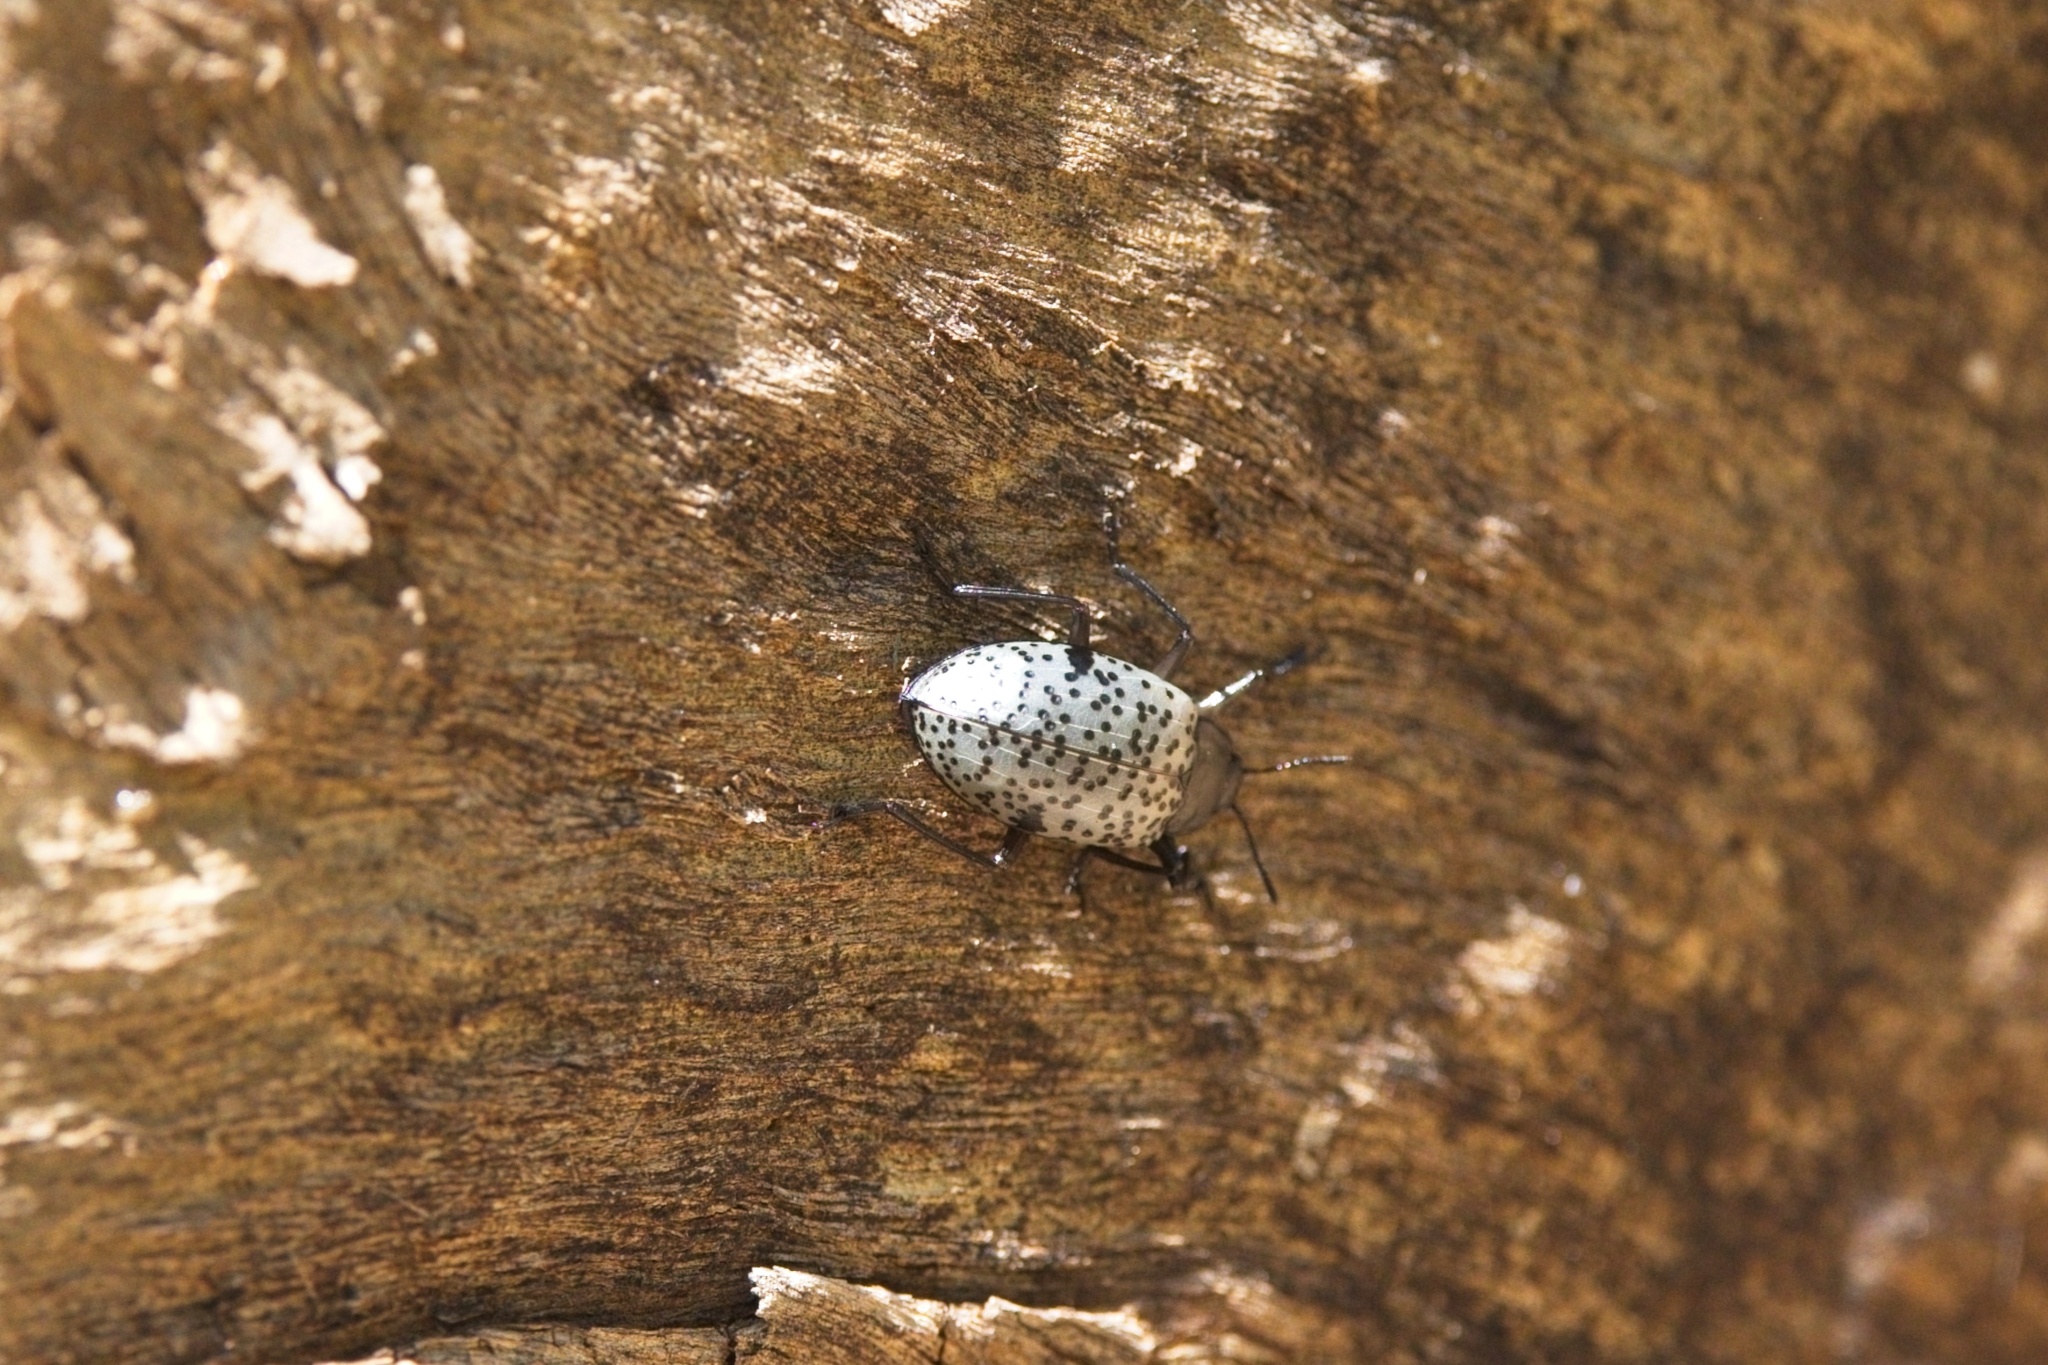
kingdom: Animalia
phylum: Arthropoda
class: Insecta
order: Coleoptera
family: Erotylidae
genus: Gibbifer
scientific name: Gibbifer californicus
